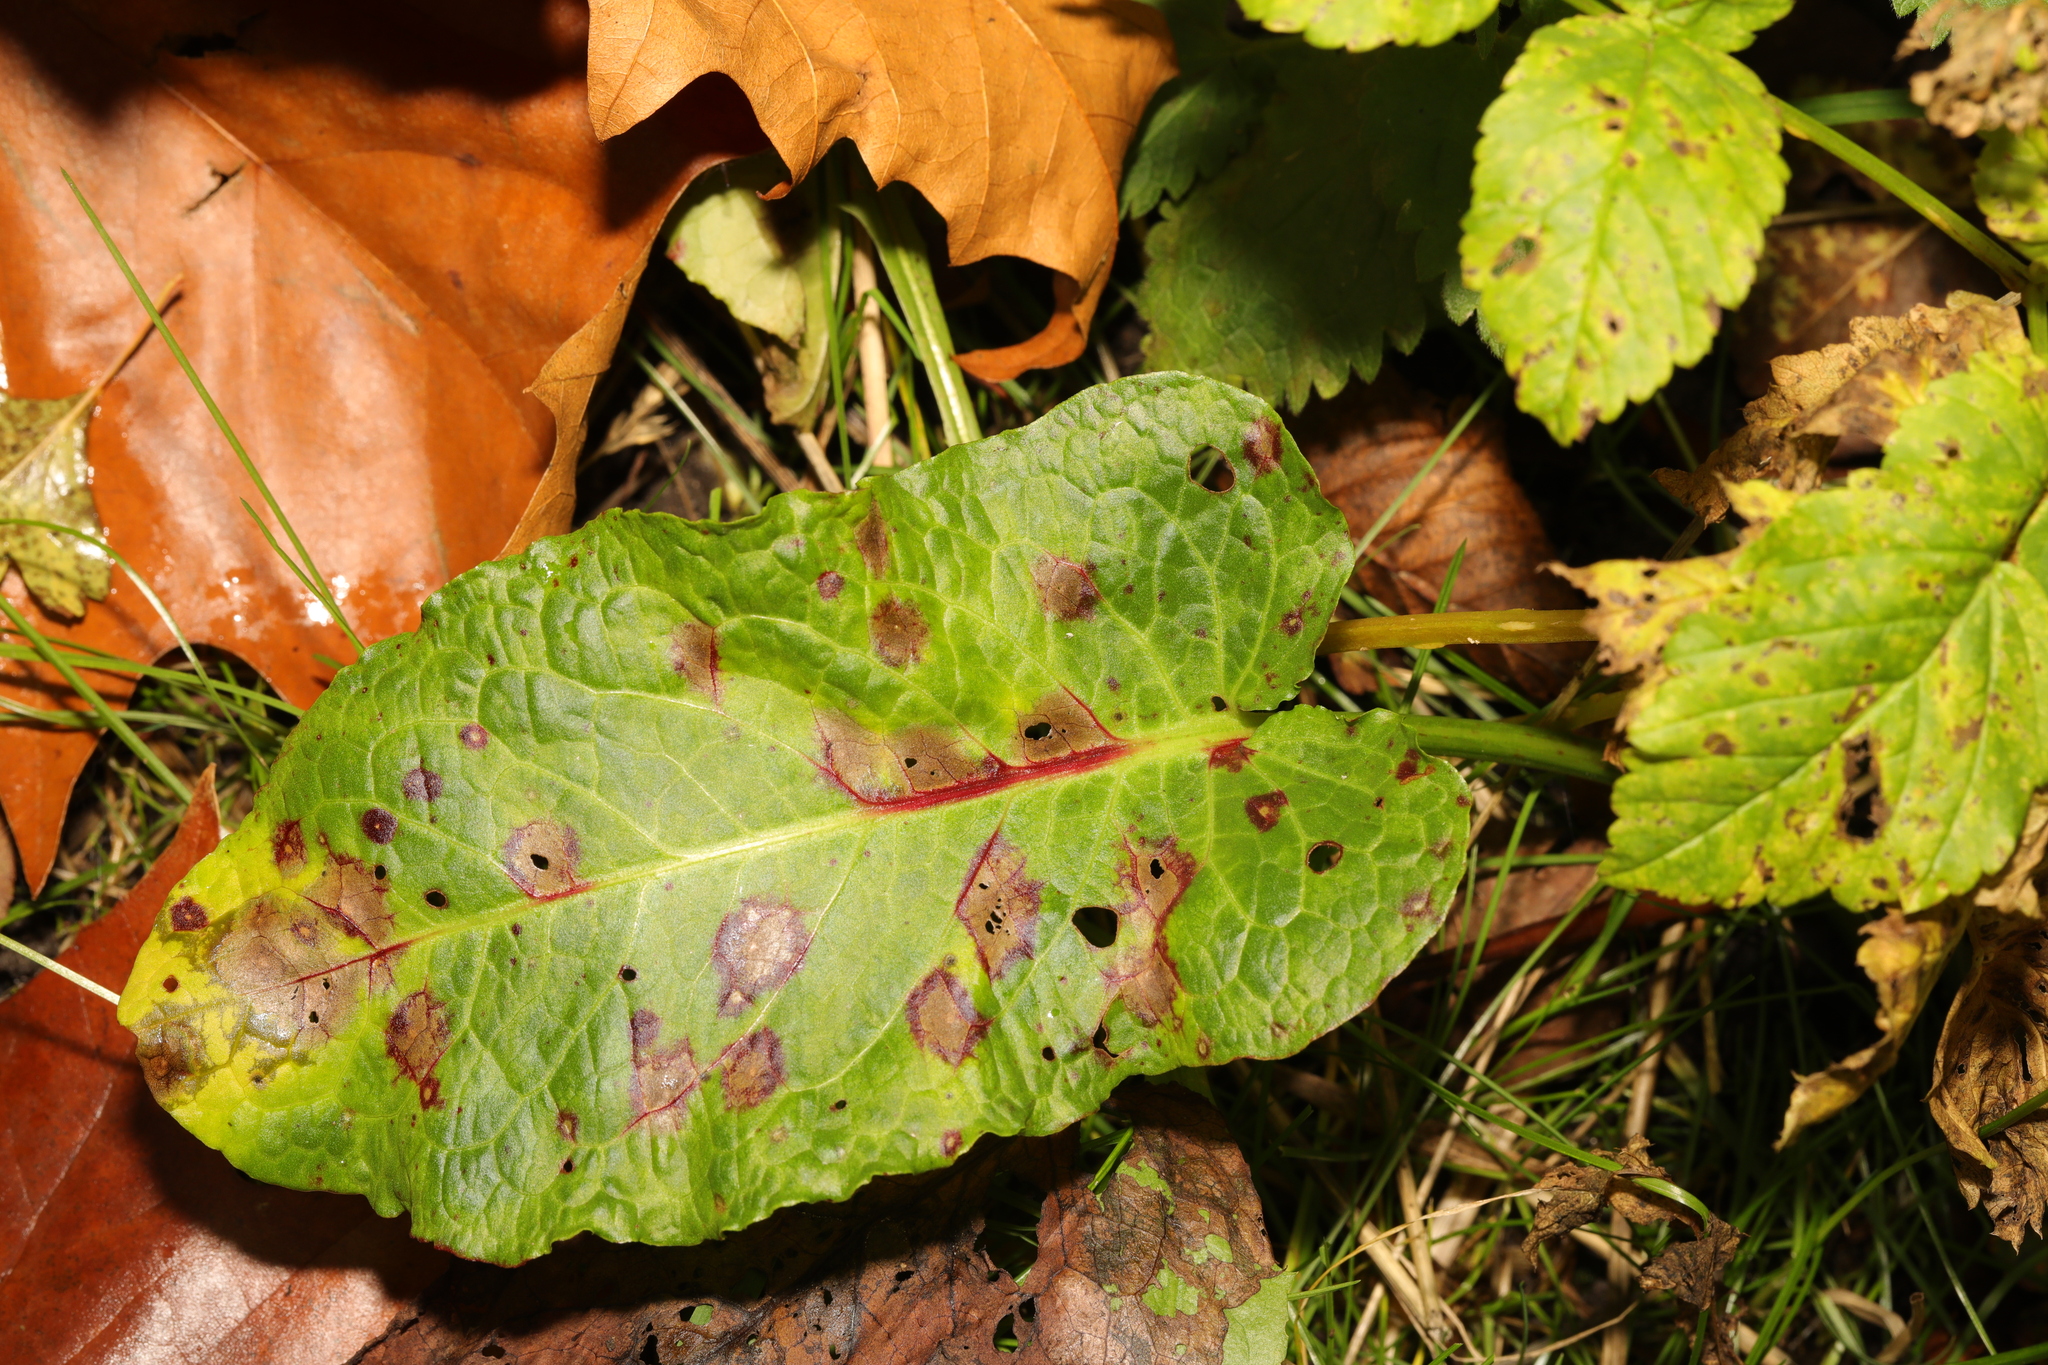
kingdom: Plantae
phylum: Tracheophyta
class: Magnoliopsida
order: Caryophyllales
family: Polygonaceae
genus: Rumex
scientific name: Rumex obtusifolius
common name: Bitter dock
